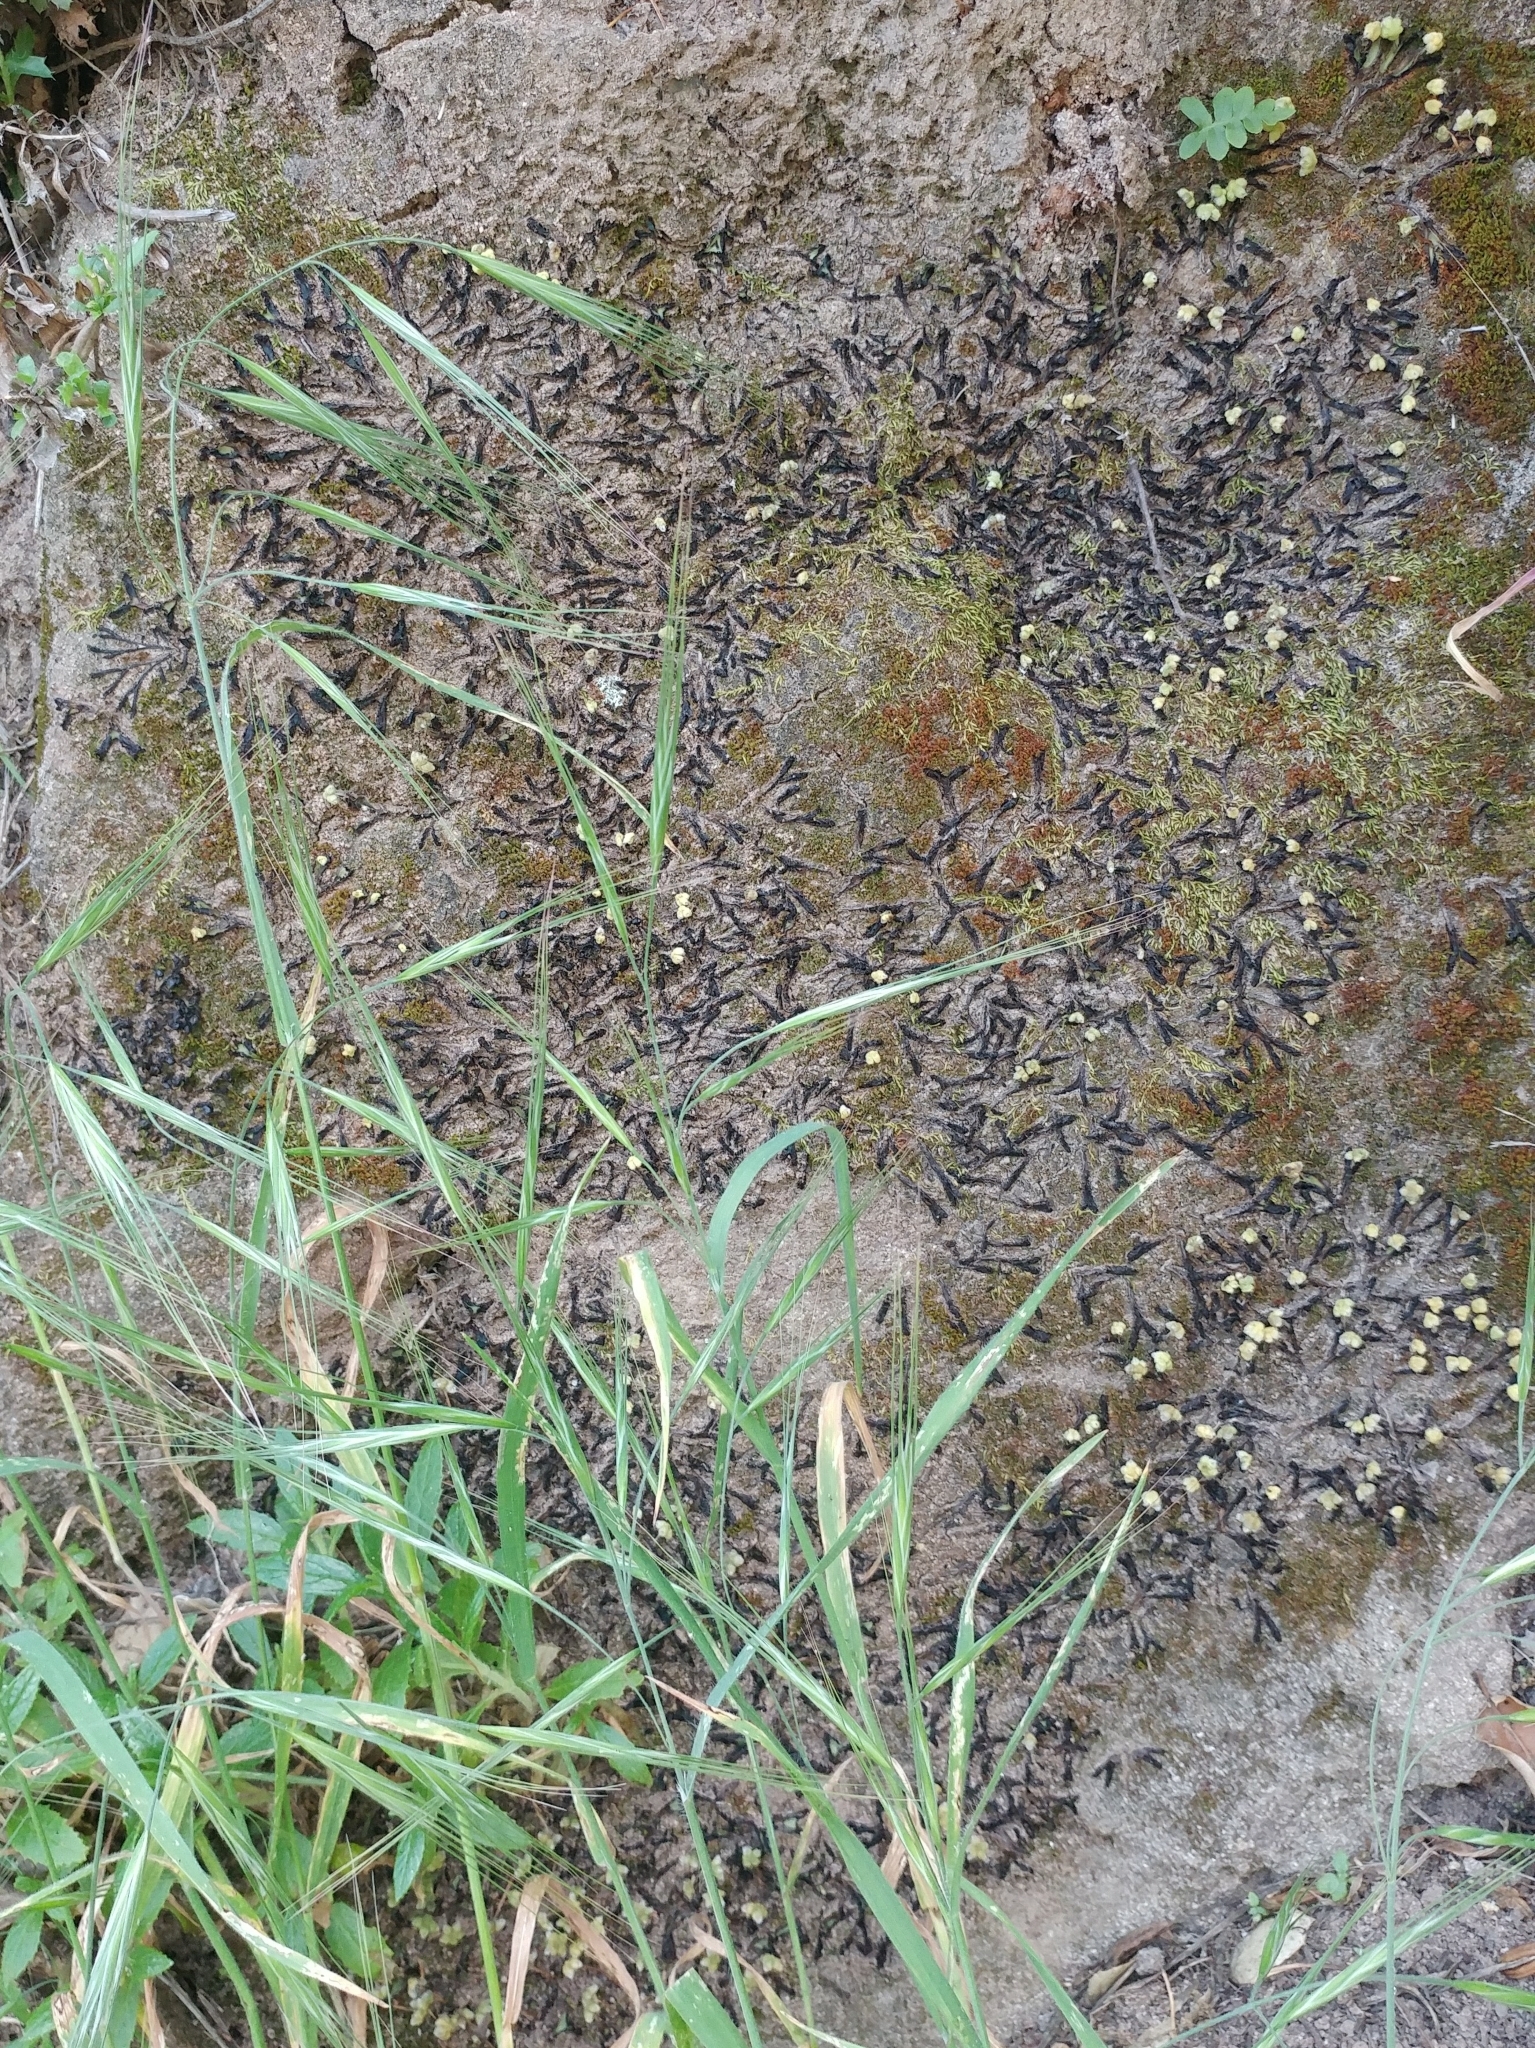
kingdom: Plantae
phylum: Marchantiophyta
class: Marchantiopsida
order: Marchantiales
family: Targioniaceae
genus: Targionia
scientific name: Targionia hypophylla
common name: Orobus-seed liverwort
